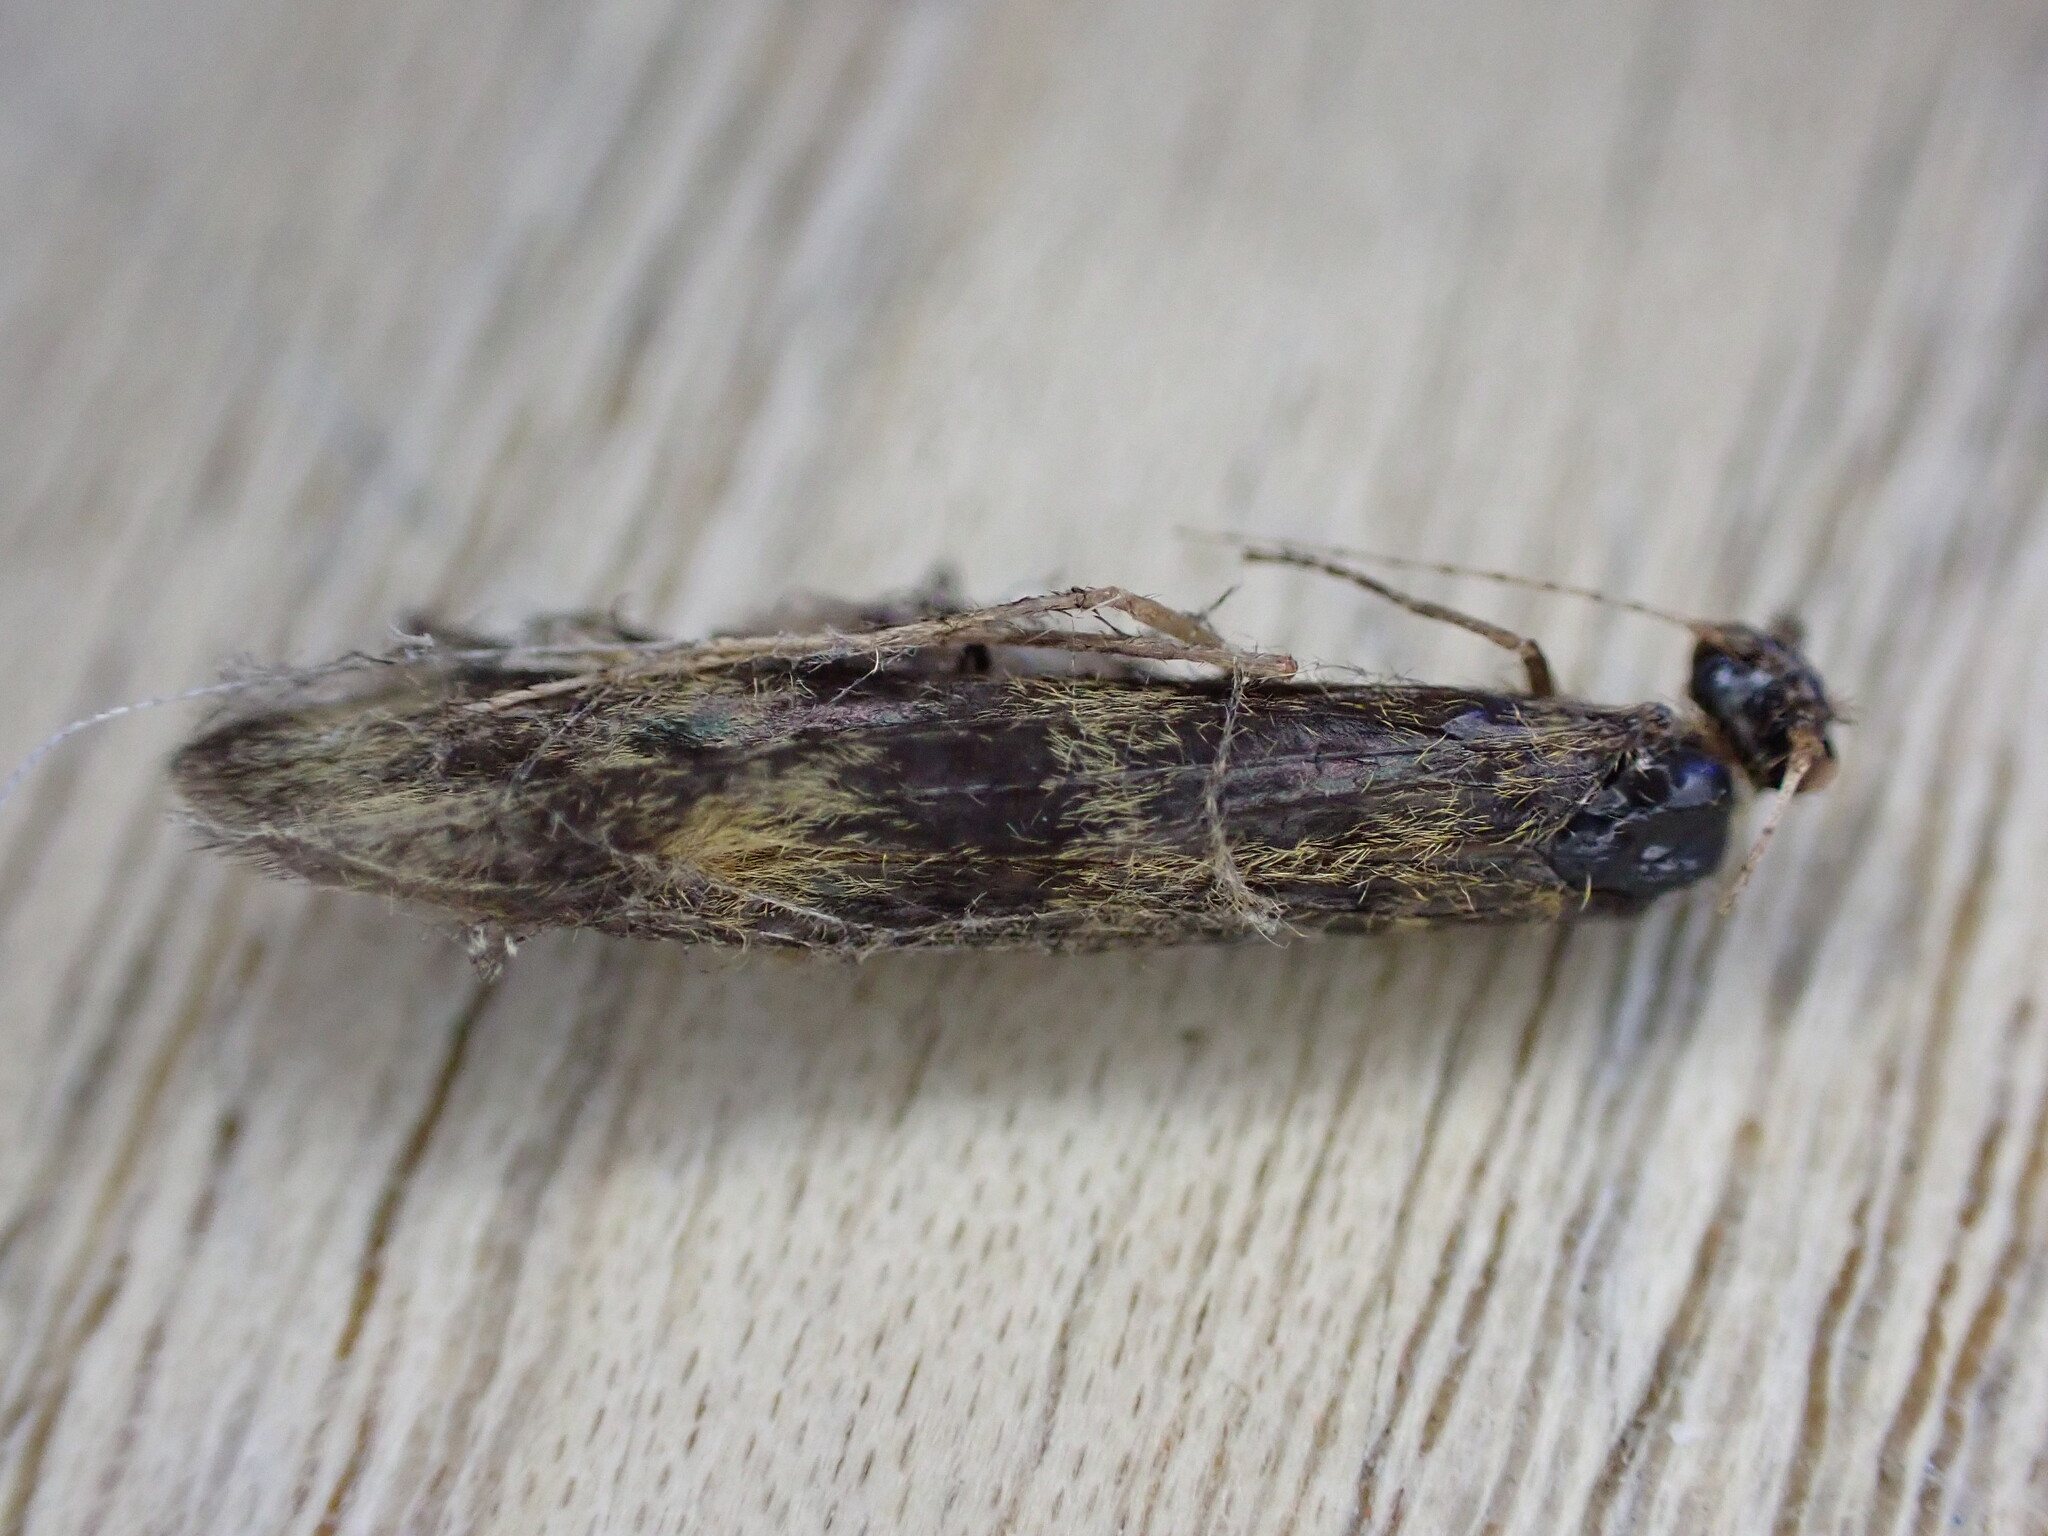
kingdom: Animalia
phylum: Arthropoda
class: Insecta
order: Trichoptera
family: Leptoceridae
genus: Mystacides
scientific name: Mystacides longicornis
